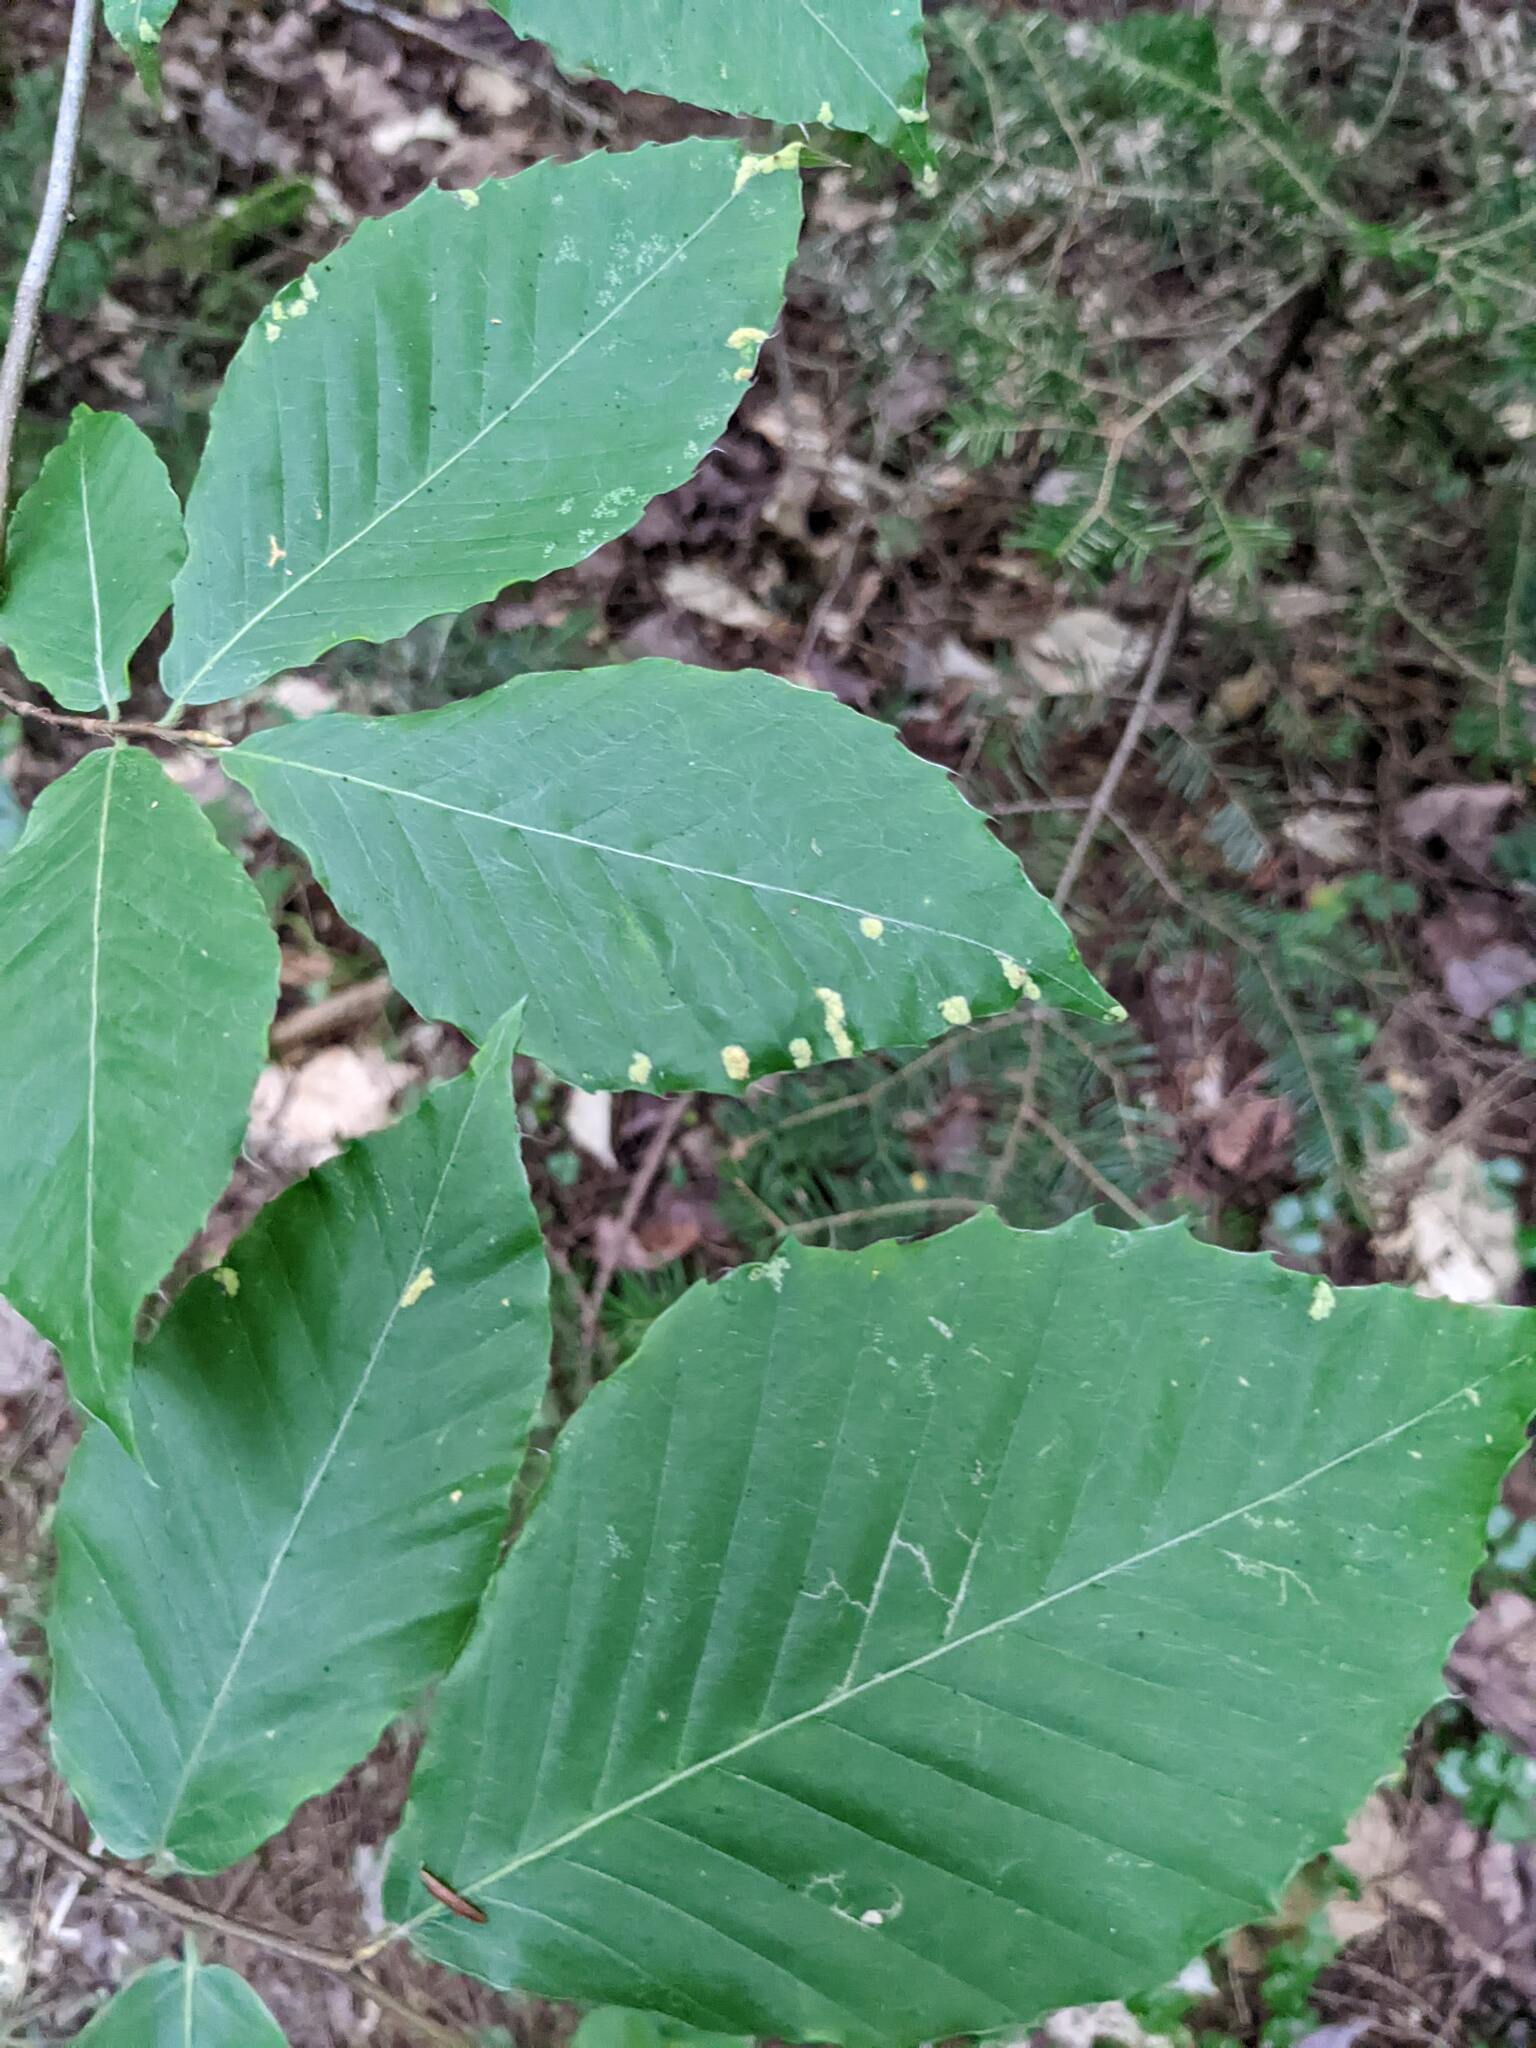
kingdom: Plantae
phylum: Tracheophyta
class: Magnoliopsida
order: Fagales
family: Fagaceae
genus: Fagus
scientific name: Fagus grandifolia
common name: American beech
